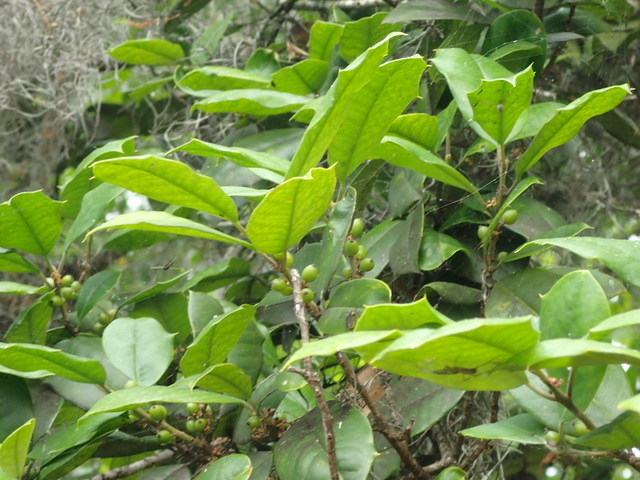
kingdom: Plantae
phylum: Tracheophyta
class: Magnoliopsida
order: Aquifoliales
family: Aquifoliaceae
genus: Ilex
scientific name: Ilex opaca
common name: American holly
